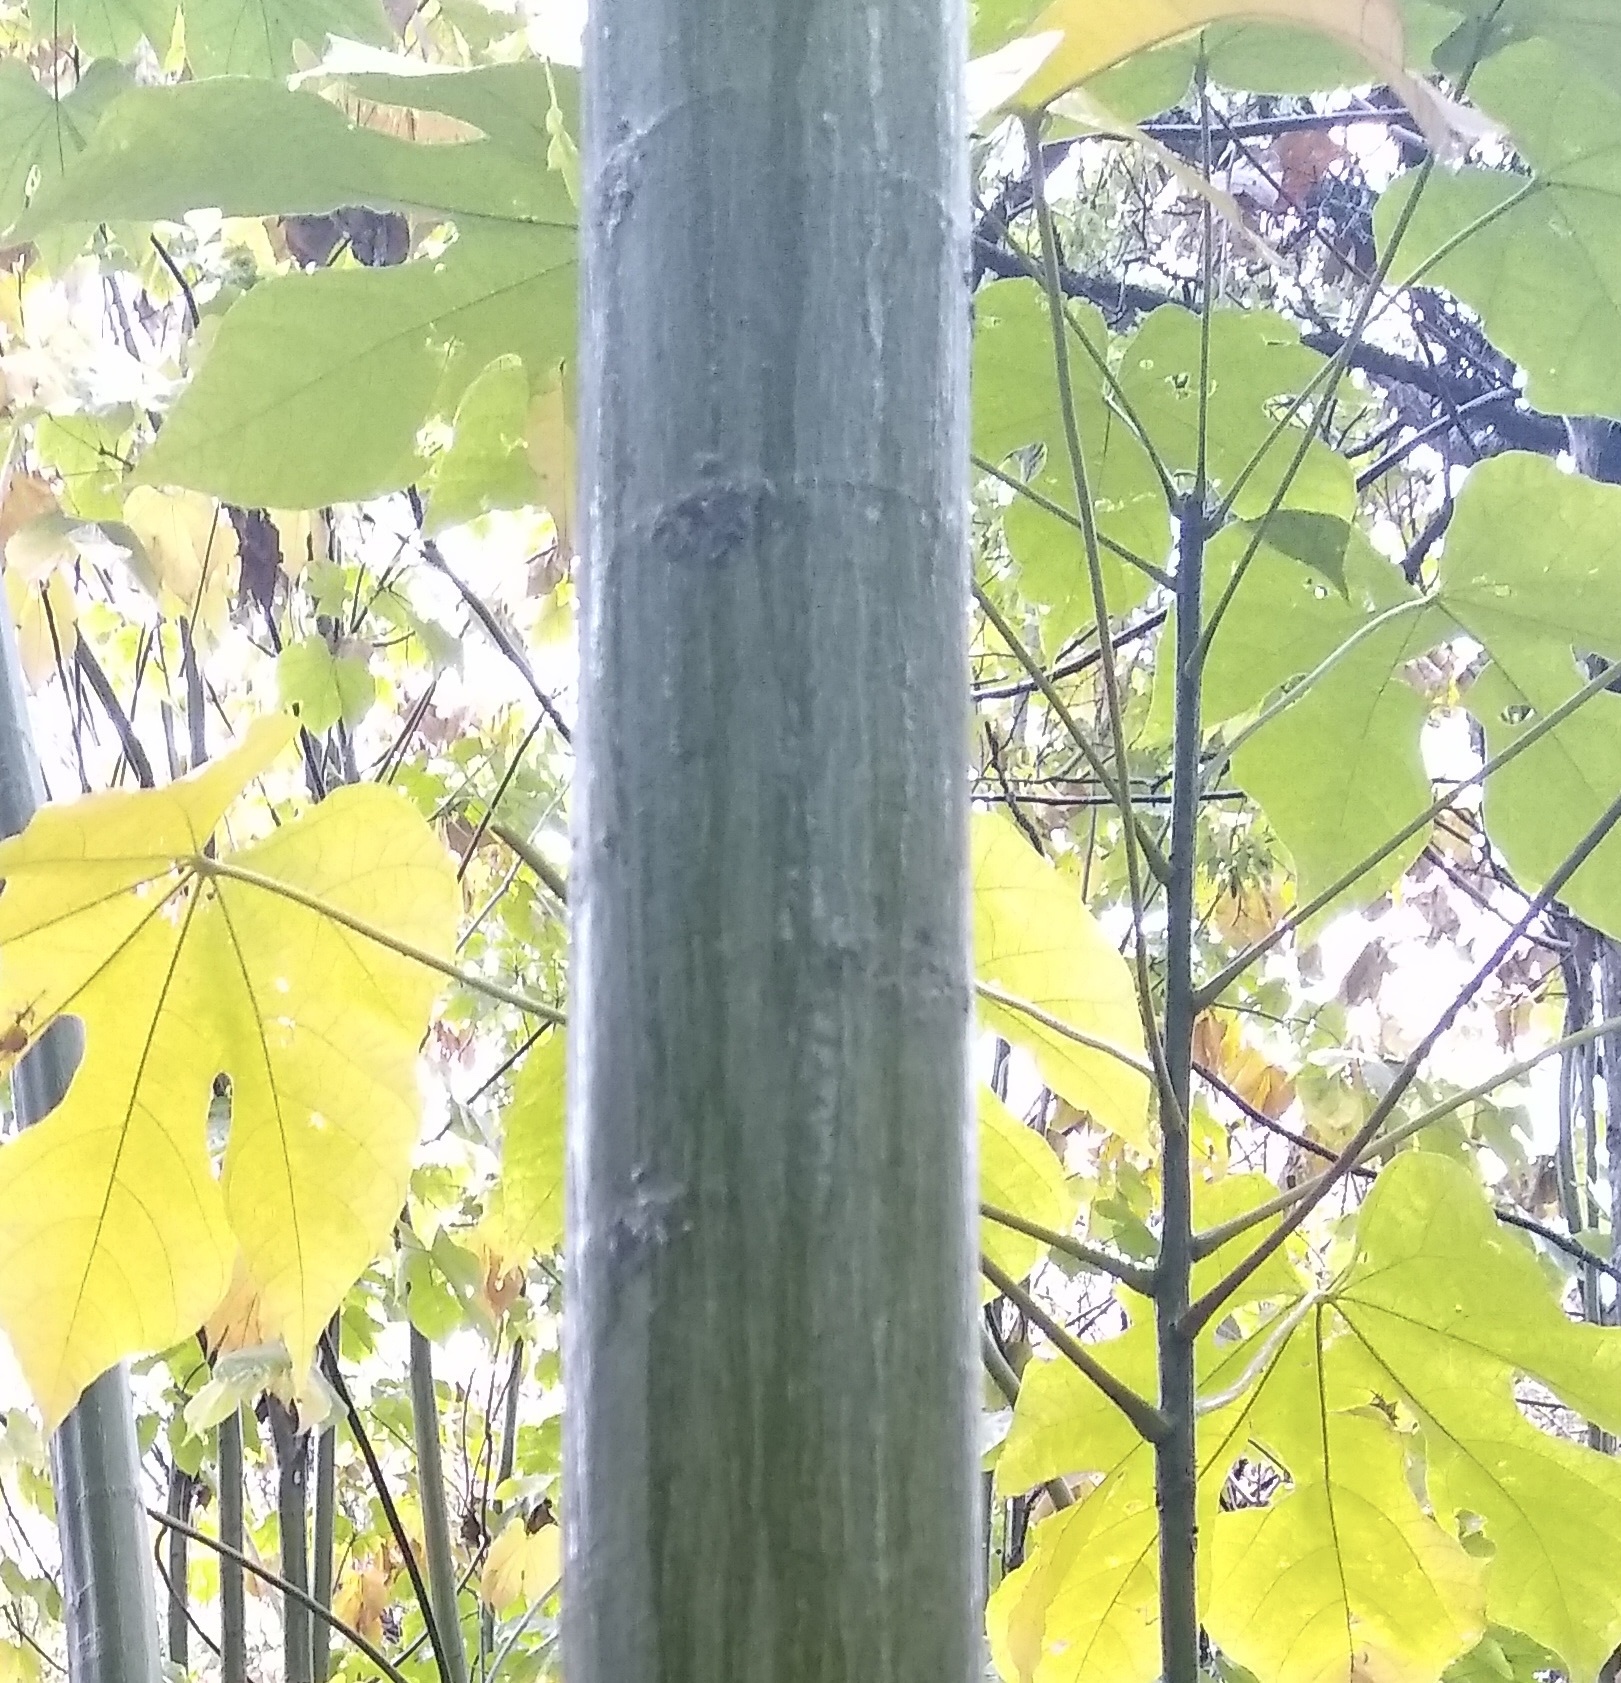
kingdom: Plantae
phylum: Tracheophyta
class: Magnoliopsida
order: Malvales
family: Malvaceae
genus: Firmiana
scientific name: Firmiana simplex
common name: Chinese parasoltree
